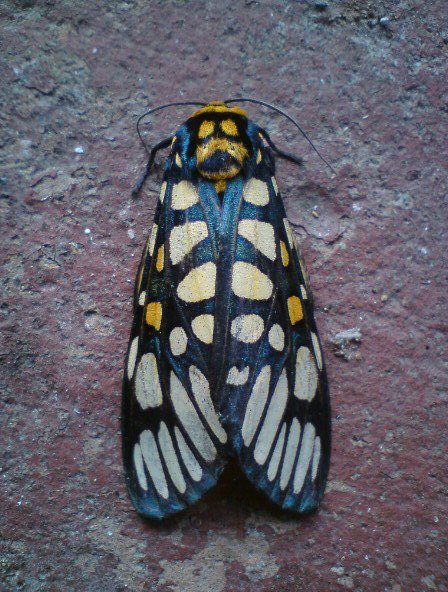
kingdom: Animalia
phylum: Arthropoda
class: Insecta
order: Lepidoptera
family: Erebidae
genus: Aglaomorpha
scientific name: Aglaomorpha plagiata
